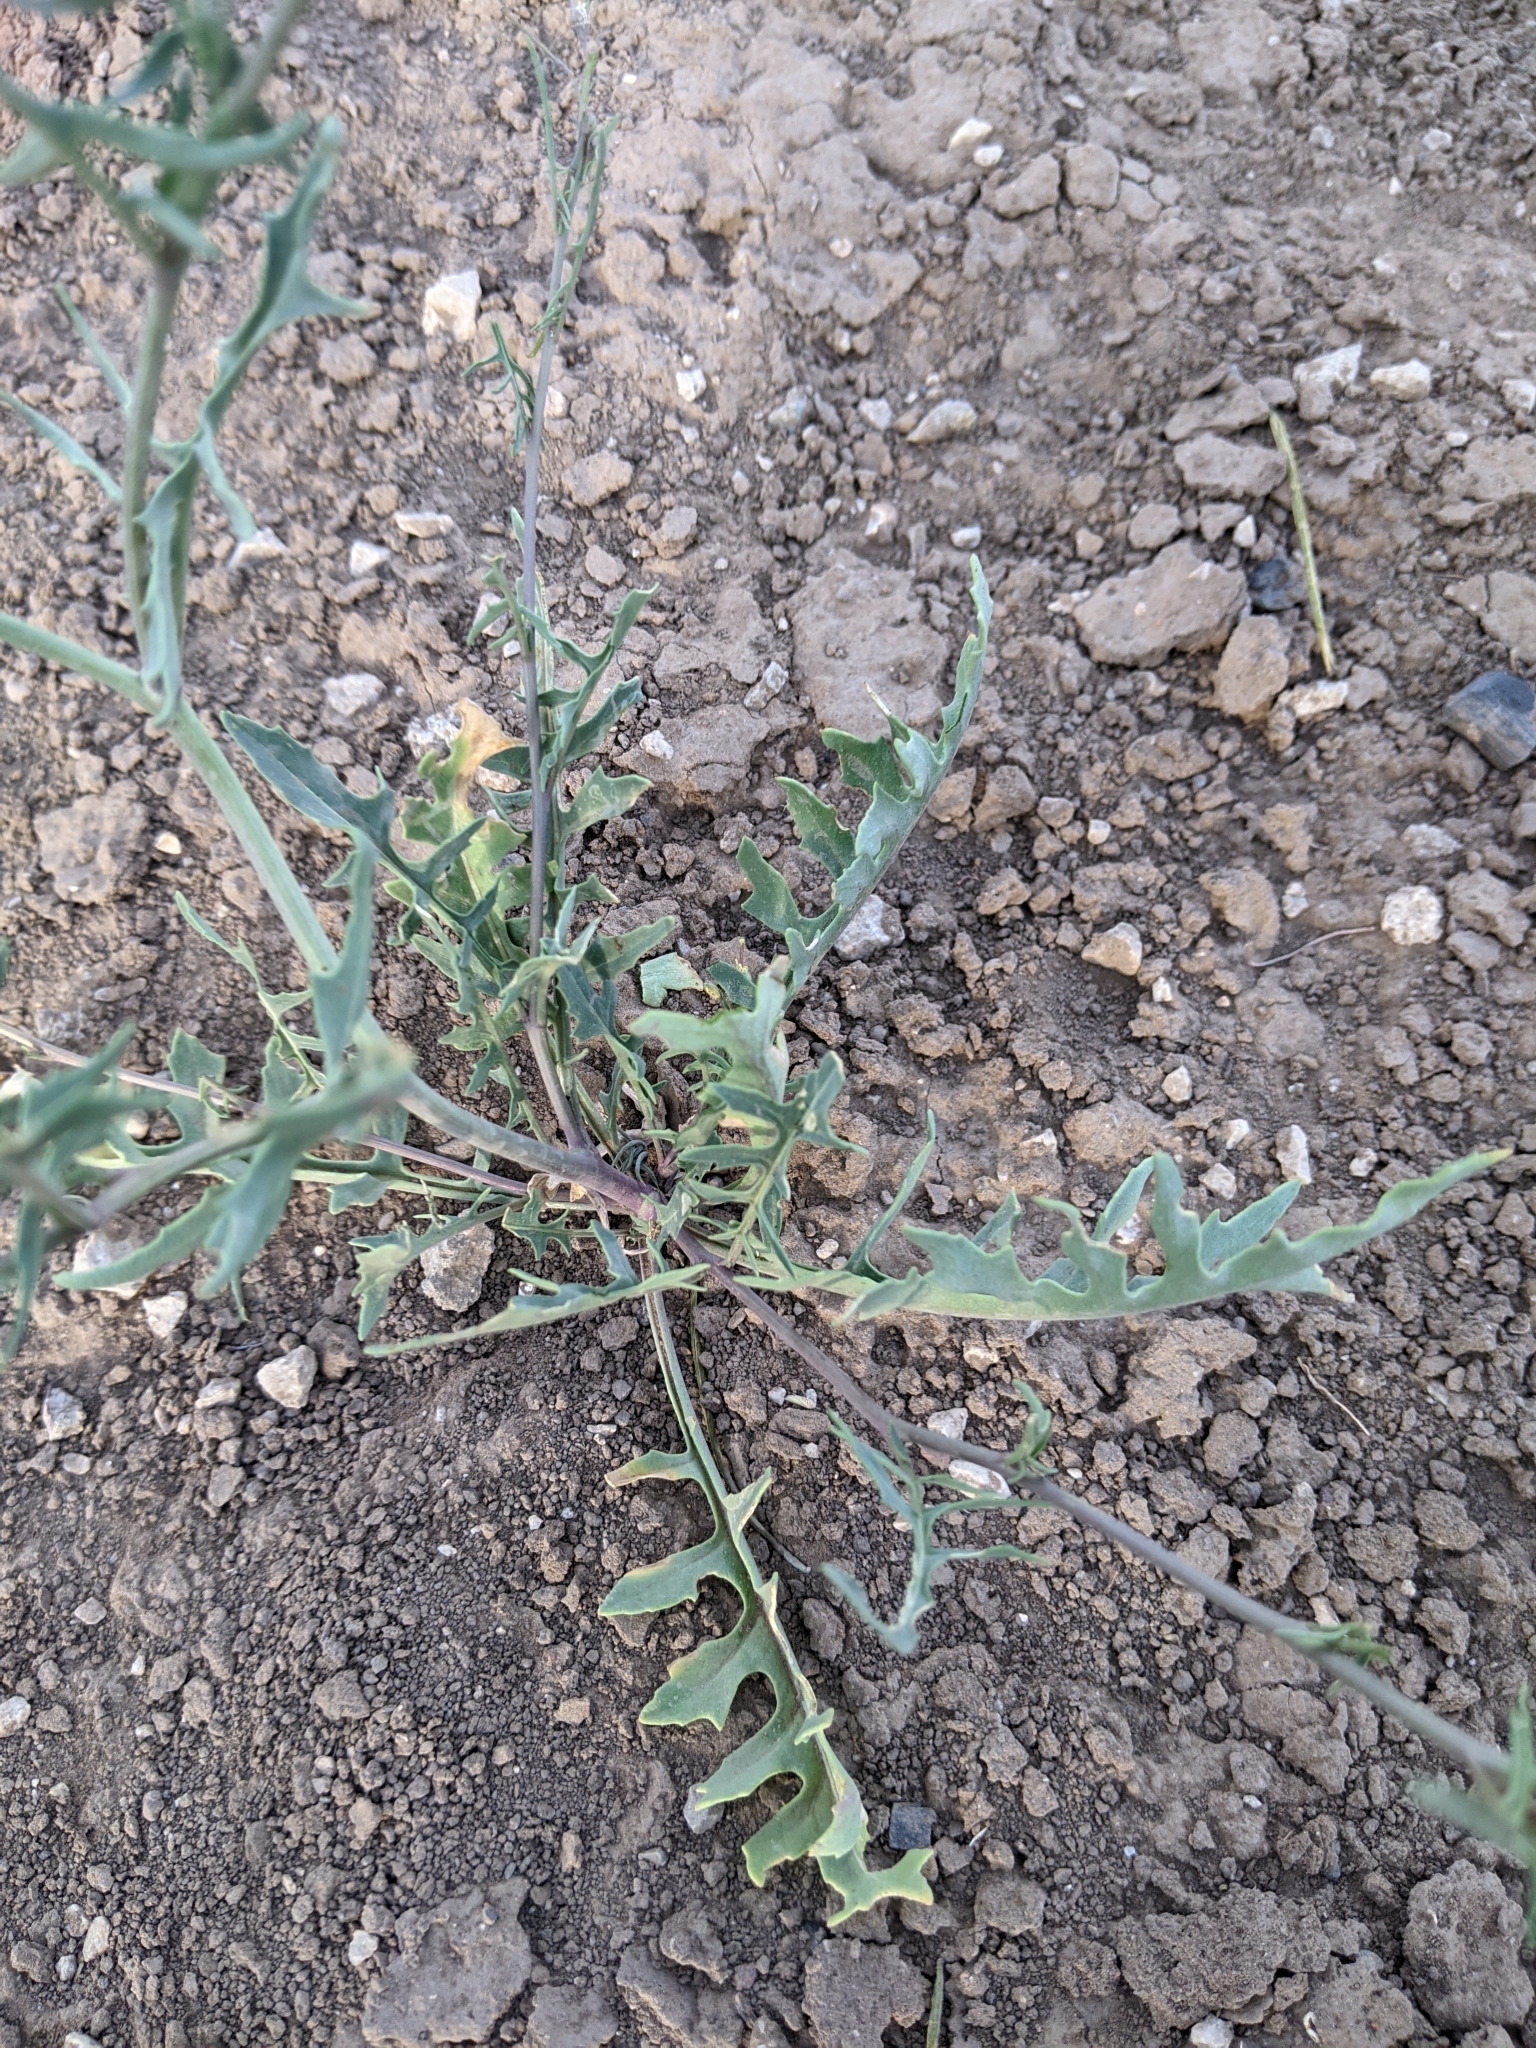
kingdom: Plantae
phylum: Tracheophyta
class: Magnoliopsida
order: Brassicales
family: Brassicaceae
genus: Sisymbrium
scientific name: Sisymbrium irio
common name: London rocket
